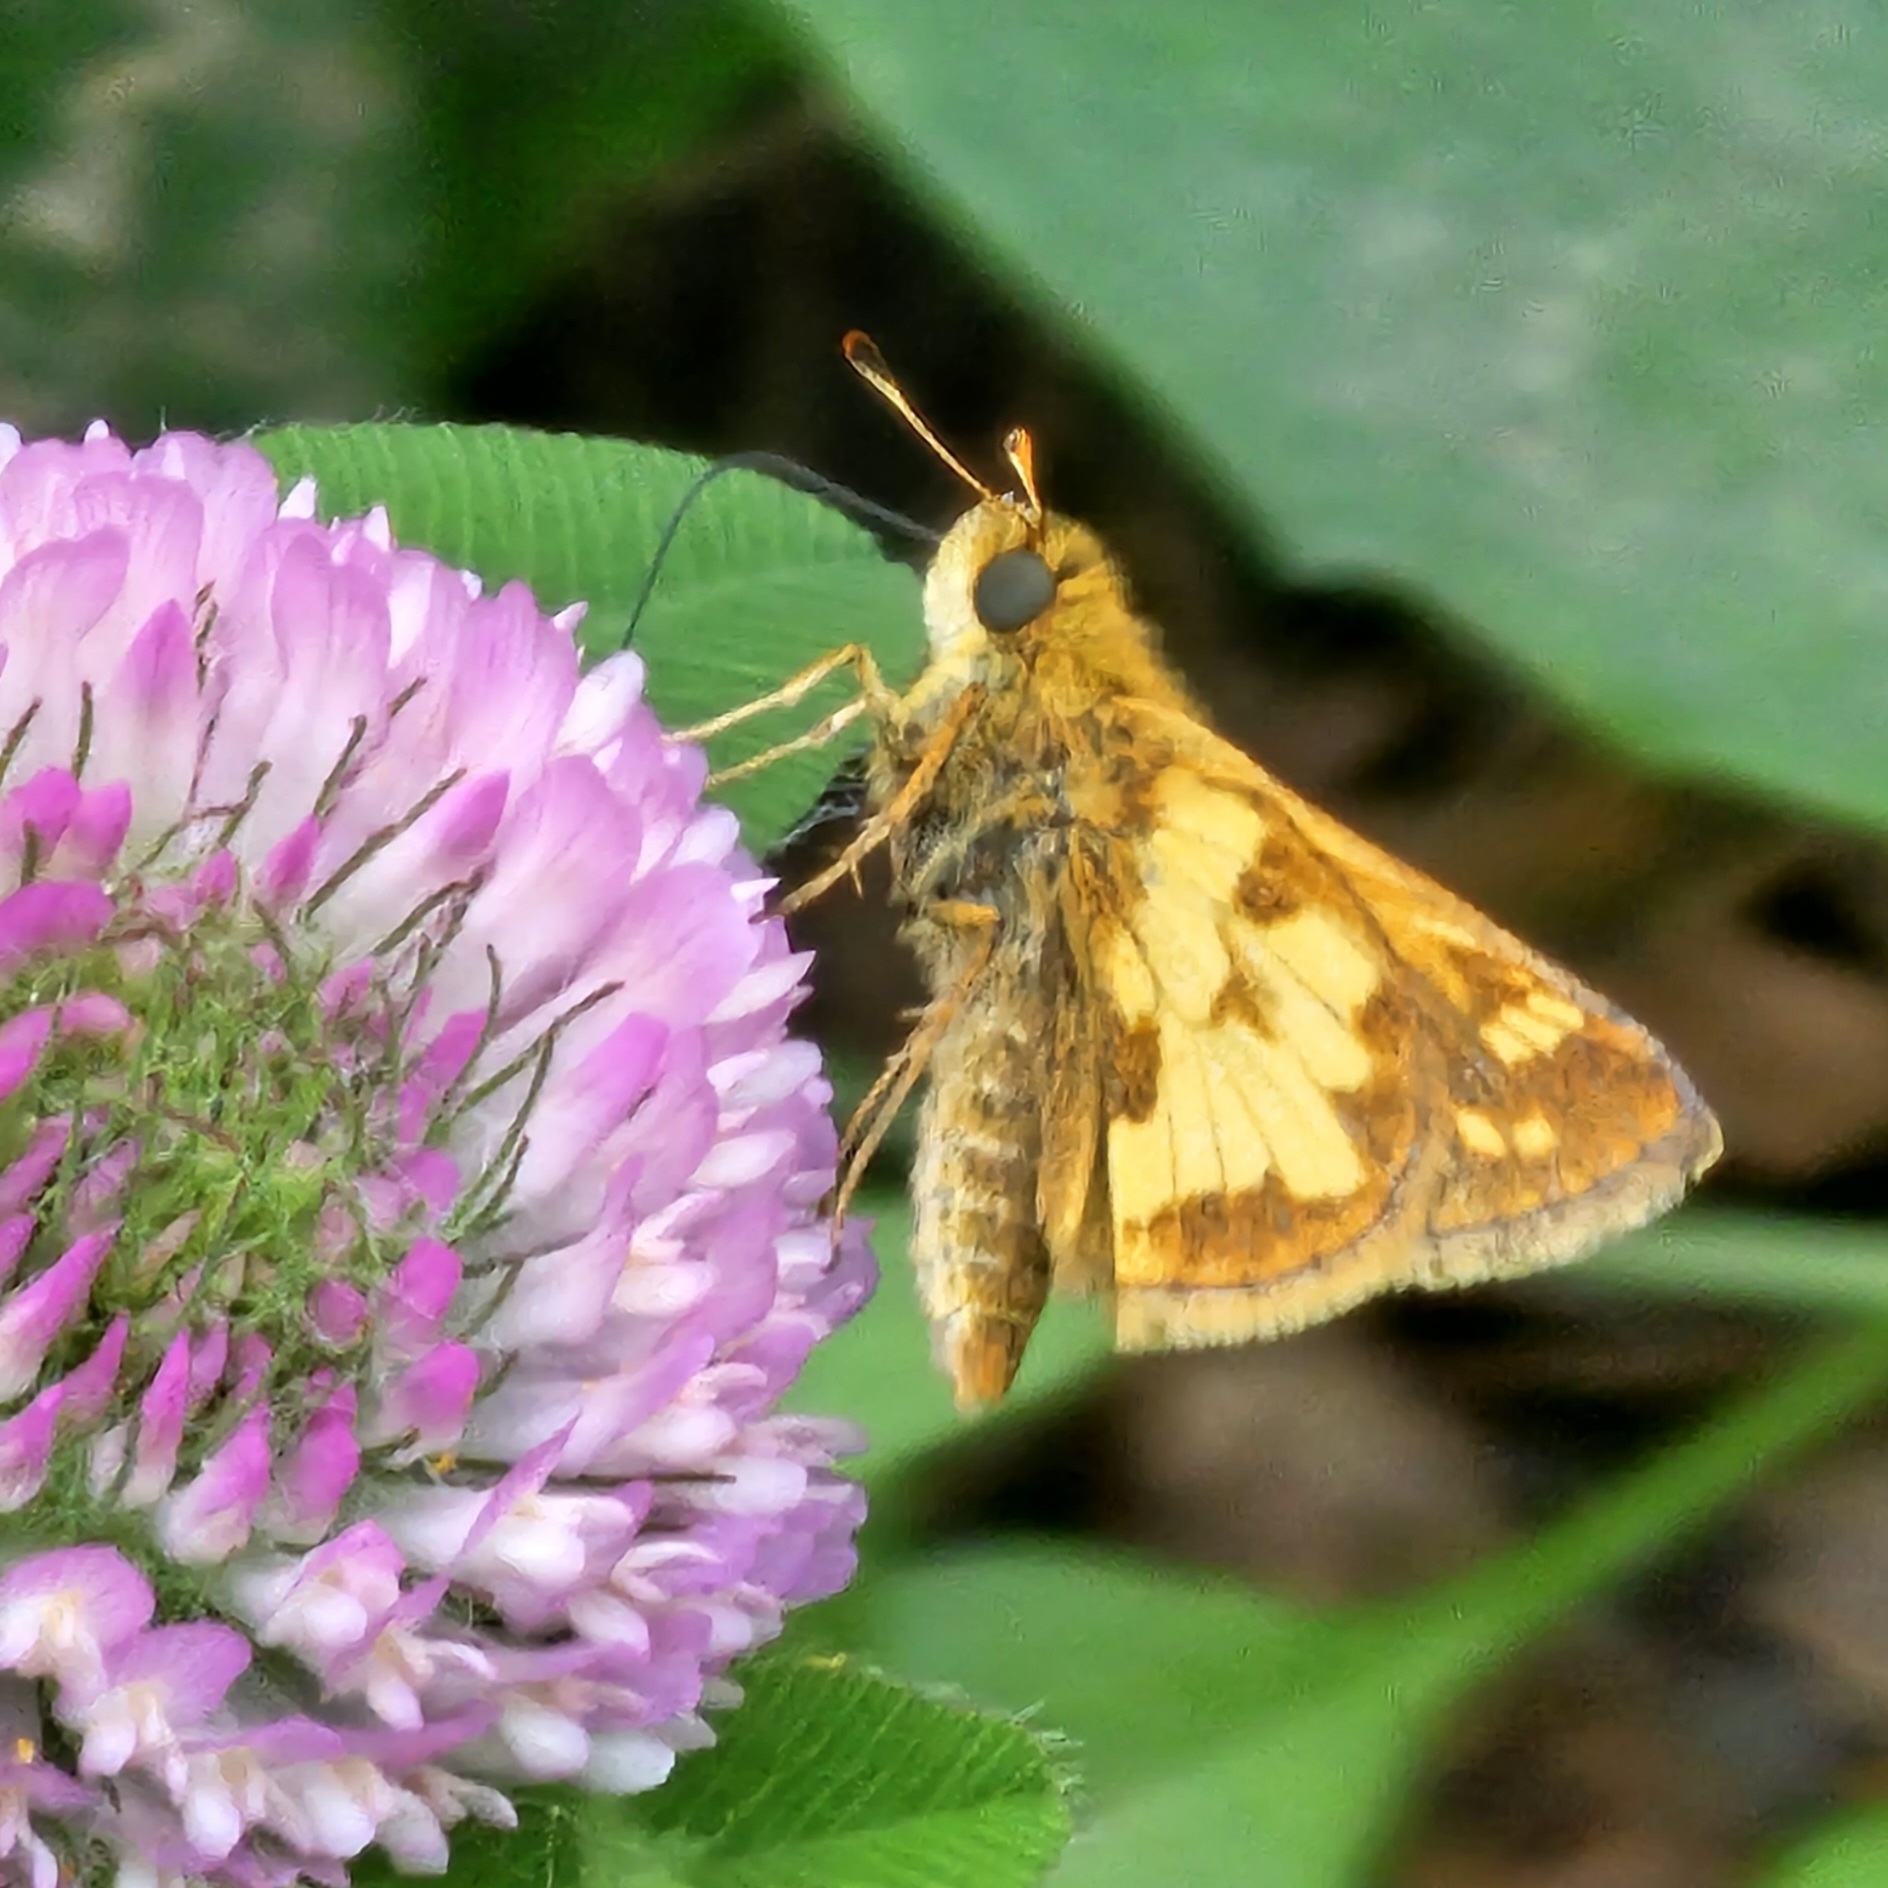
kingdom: Animalia
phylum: Arthropoda
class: Insecta
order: Lepidoptera
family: Hesperiidae
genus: Polites
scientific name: Polites coras
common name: Peck's skipper
